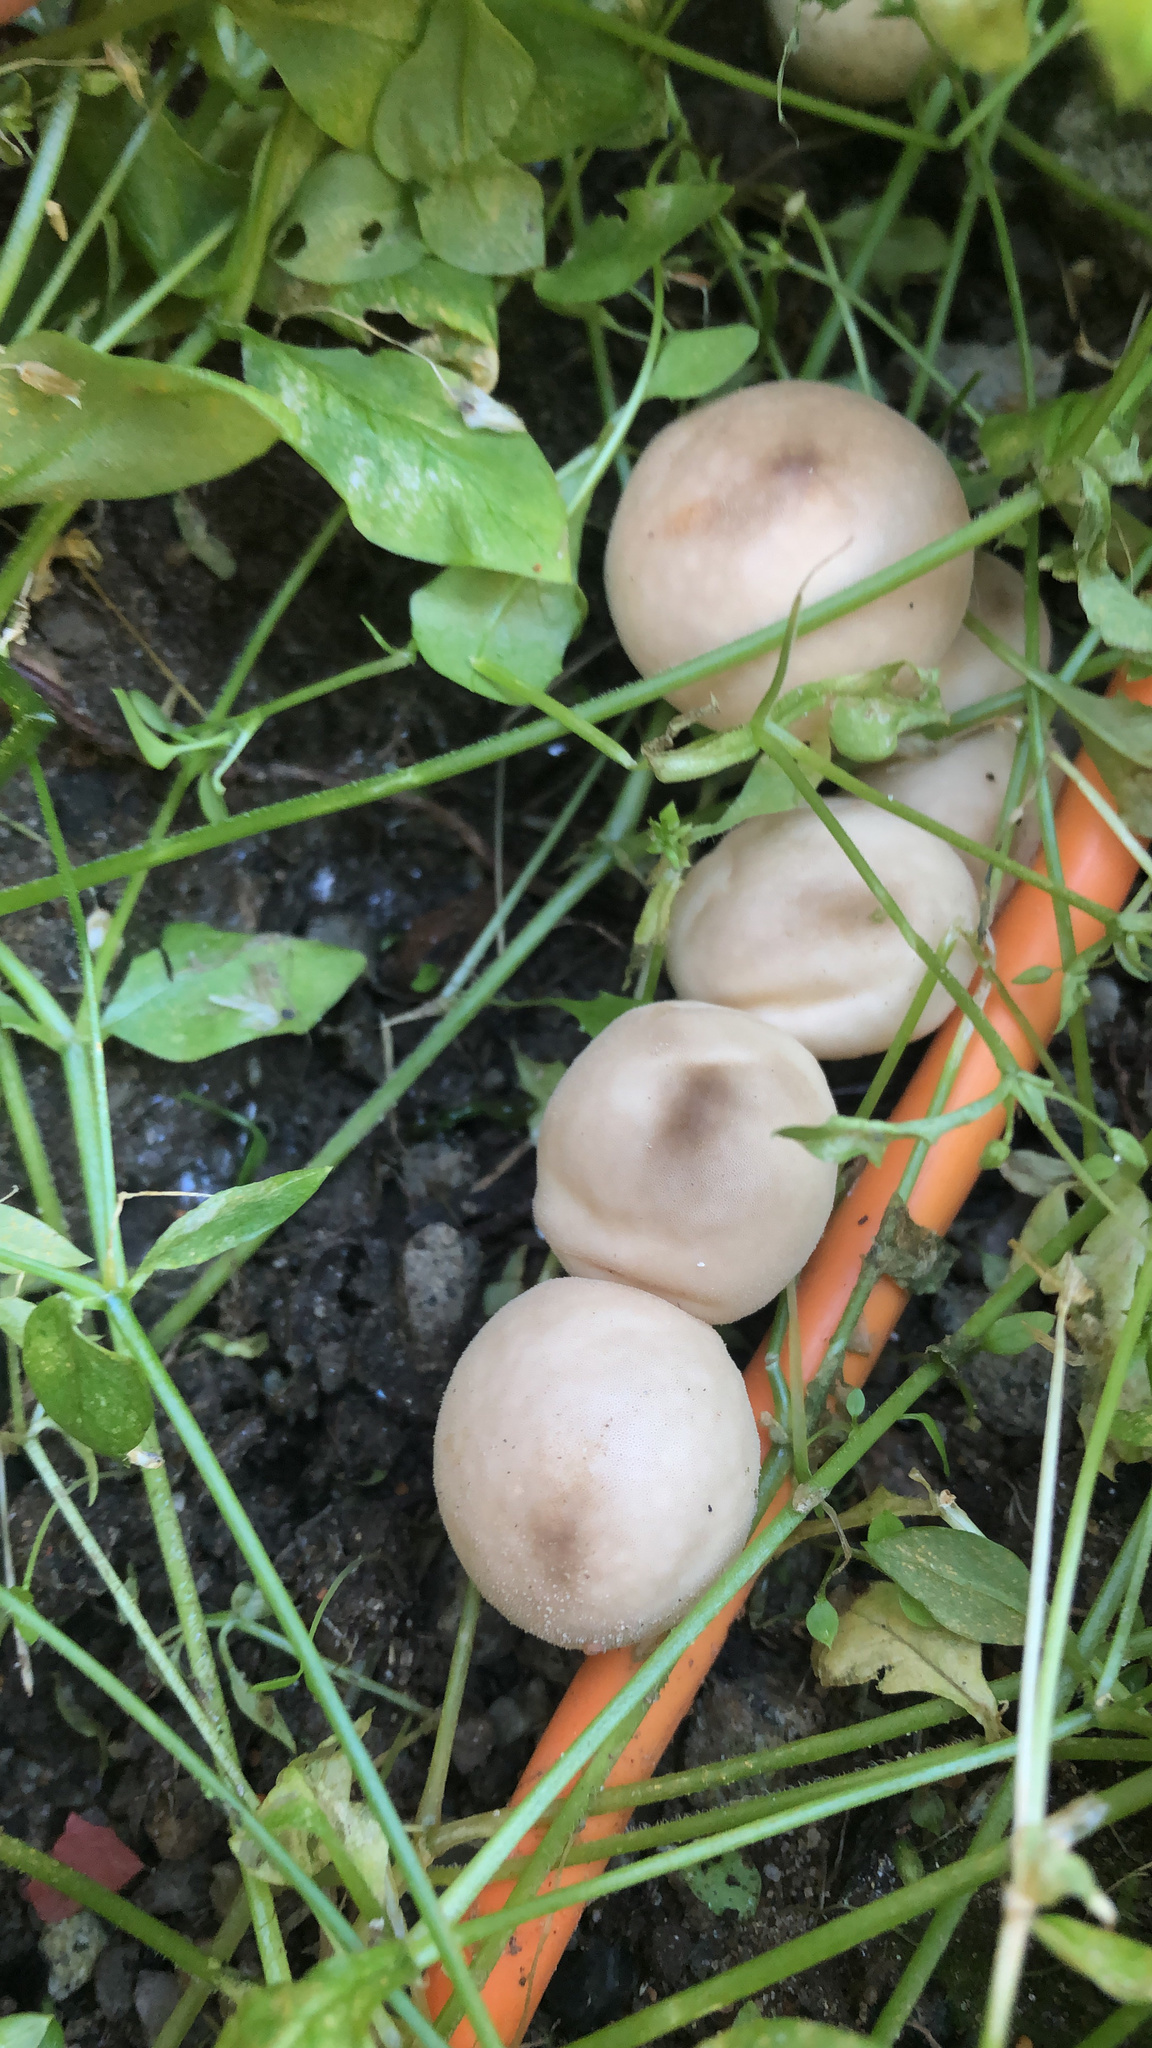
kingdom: Fungi
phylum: Basidiomycota
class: Agaricomycetes
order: Agaricales
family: Lycoperdaceae
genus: Apioperdon
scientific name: Apioperdon pyriforme
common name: Pear-shaped puffball
